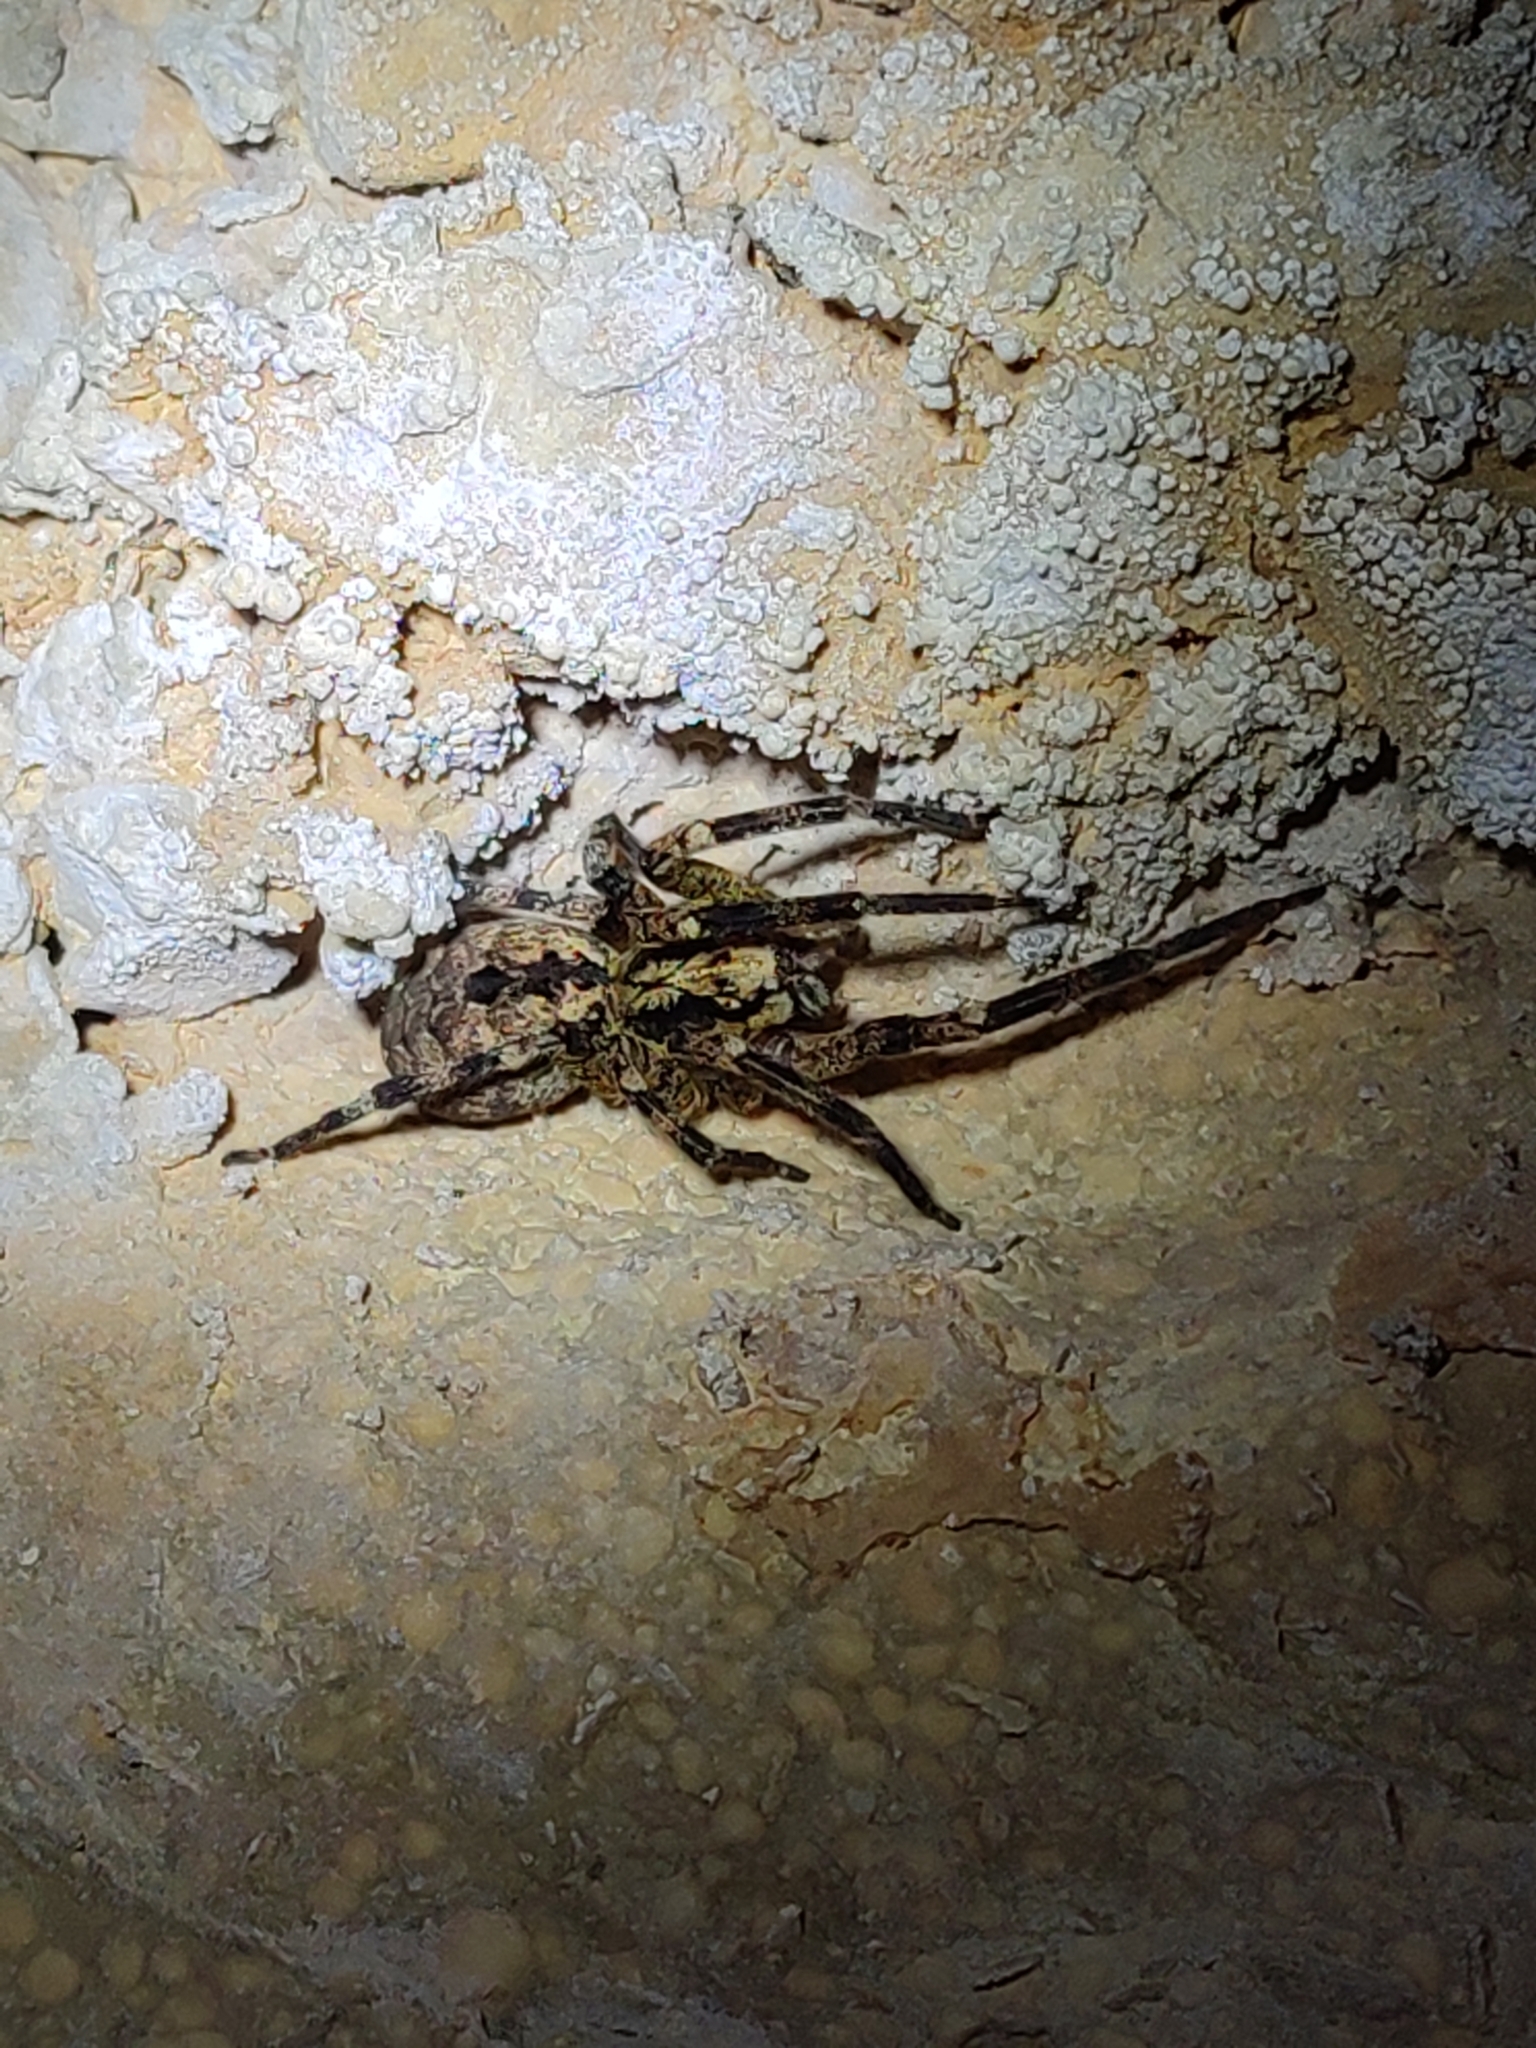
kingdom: Animalia
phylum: Arthropoda
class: Arachnida
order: Araneae
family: Zoropsidae
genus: Zoropsis
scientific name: Zoropsis spinimana
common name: Zoropsid spider
